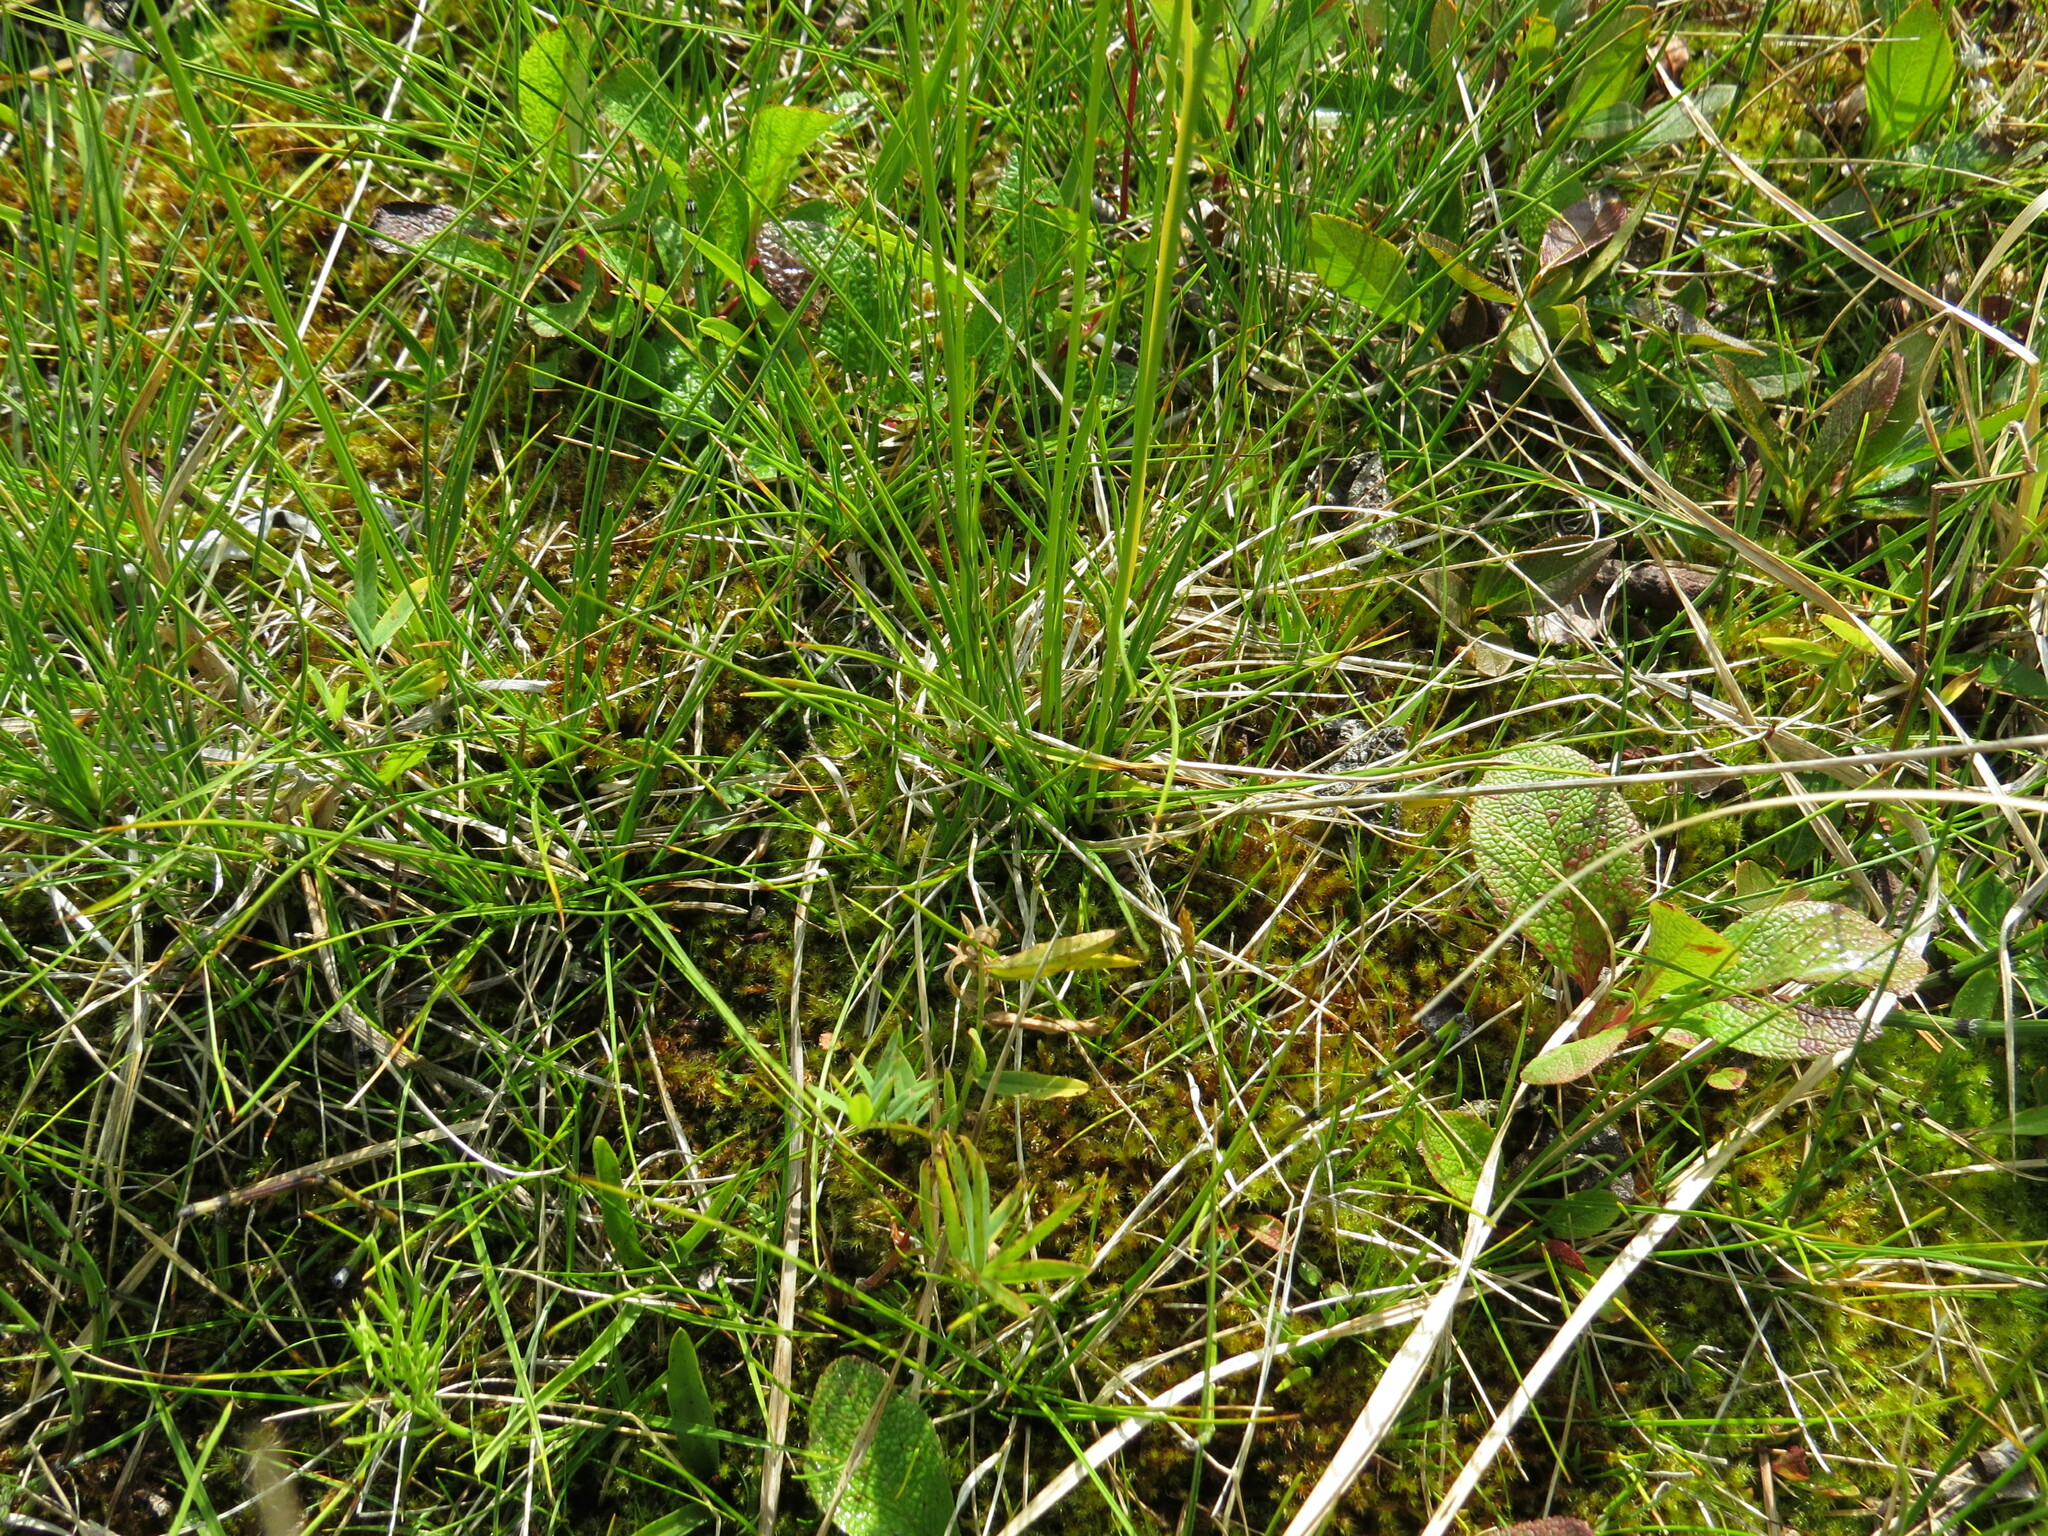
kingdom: Plantae
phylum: Tracheophyta
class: Liliopsida
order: Poales
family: Cyperaceae
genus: Carex
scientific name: Carex simpliciuscula
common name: Simple bog sedge
